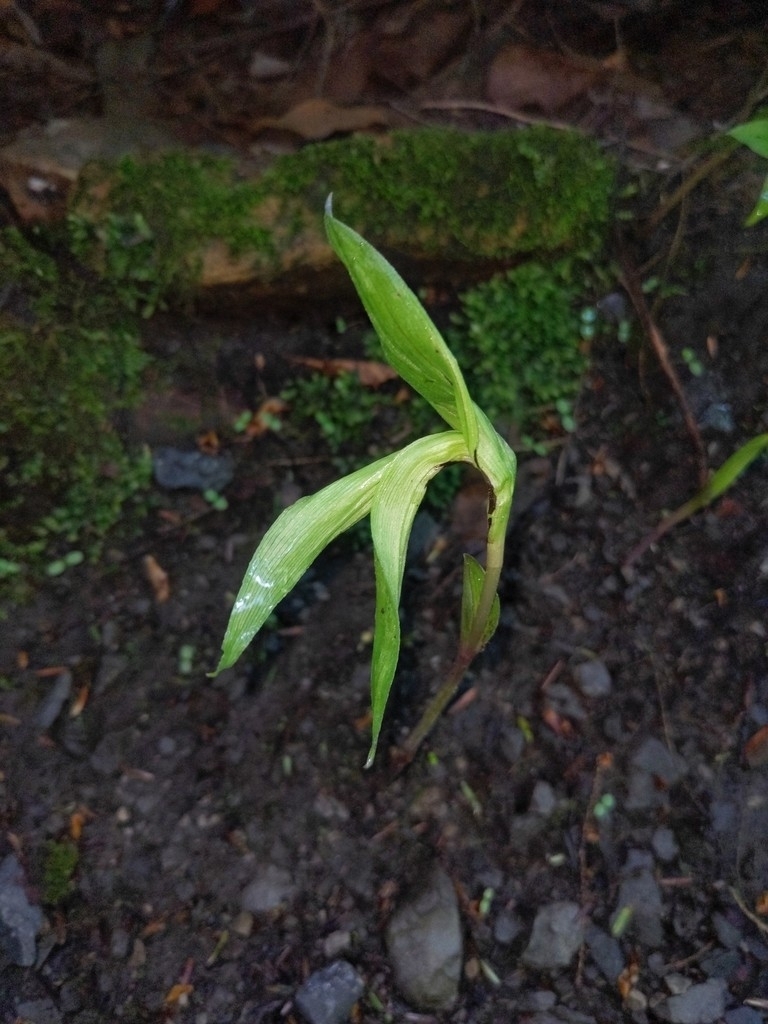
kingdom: Plantae
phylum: Tracheophyta
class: Liliopsida
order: Asparagales
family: Orchidaceae
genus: Epipactis
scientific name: Epipactis helleborine
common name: Broad-leaved helleborine
